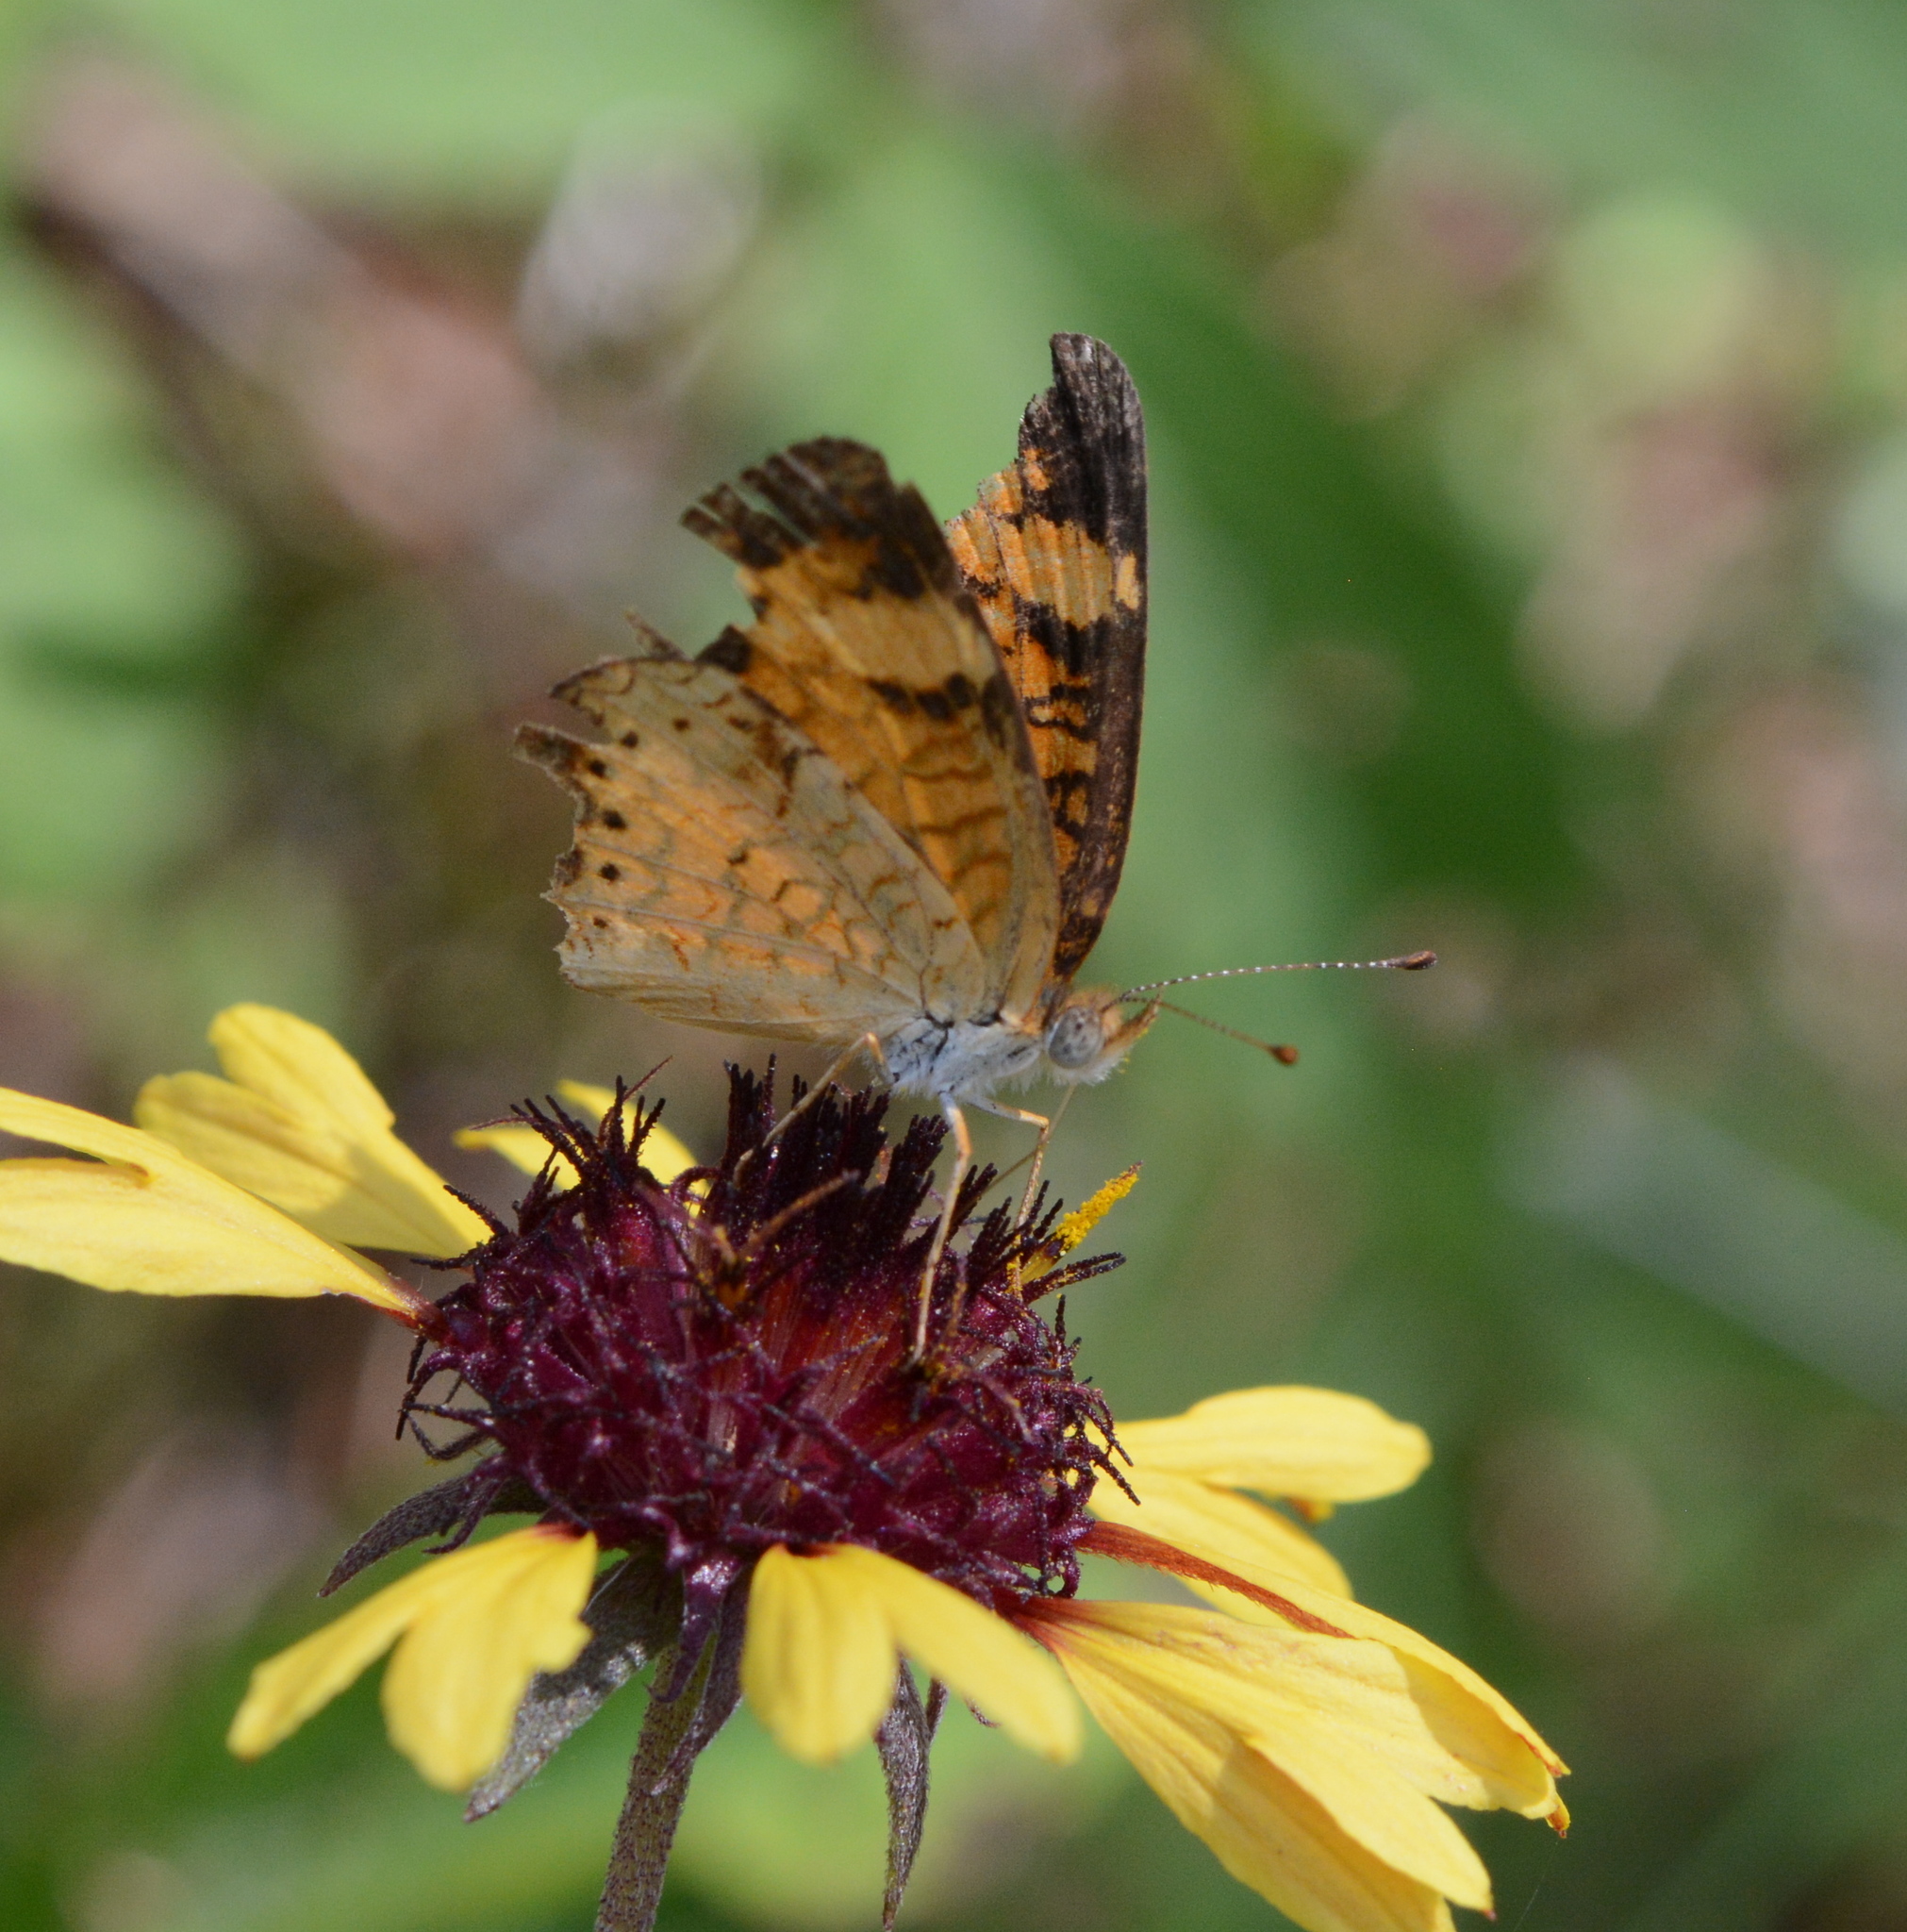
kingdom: Animalia
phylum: Arthropoda
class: Insecta
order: Lepidoptera
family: Nymphalidae
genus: Phyciodes
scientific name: Phyciodes tharos
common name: Pearl crescent
